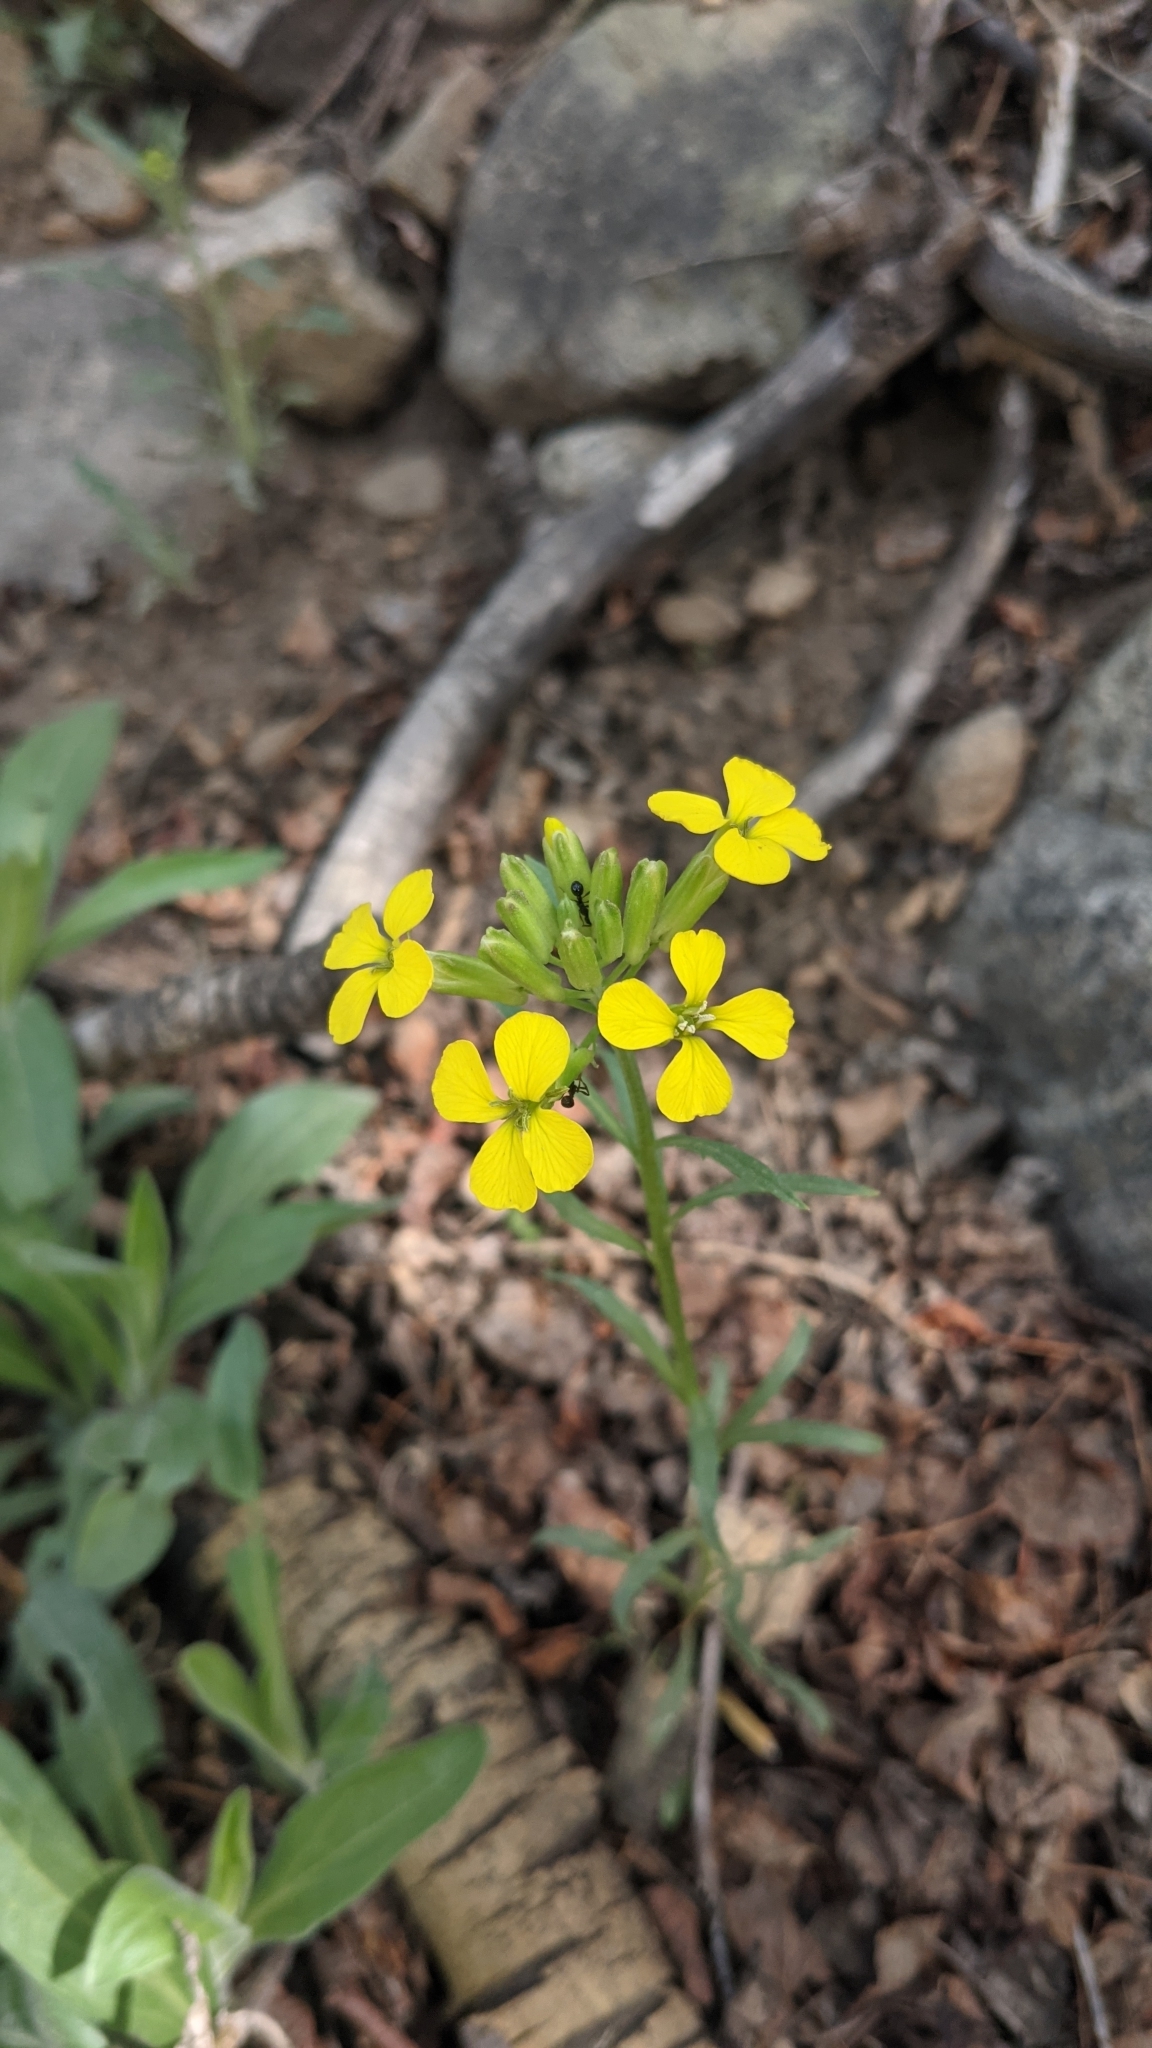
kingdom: Plantae
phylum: Tracheophyta
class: Magnoliopsida
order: Brassicales
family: Brassicaceae
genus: Erysimum
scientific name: Erysimum capitatum
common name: Western wallflower
